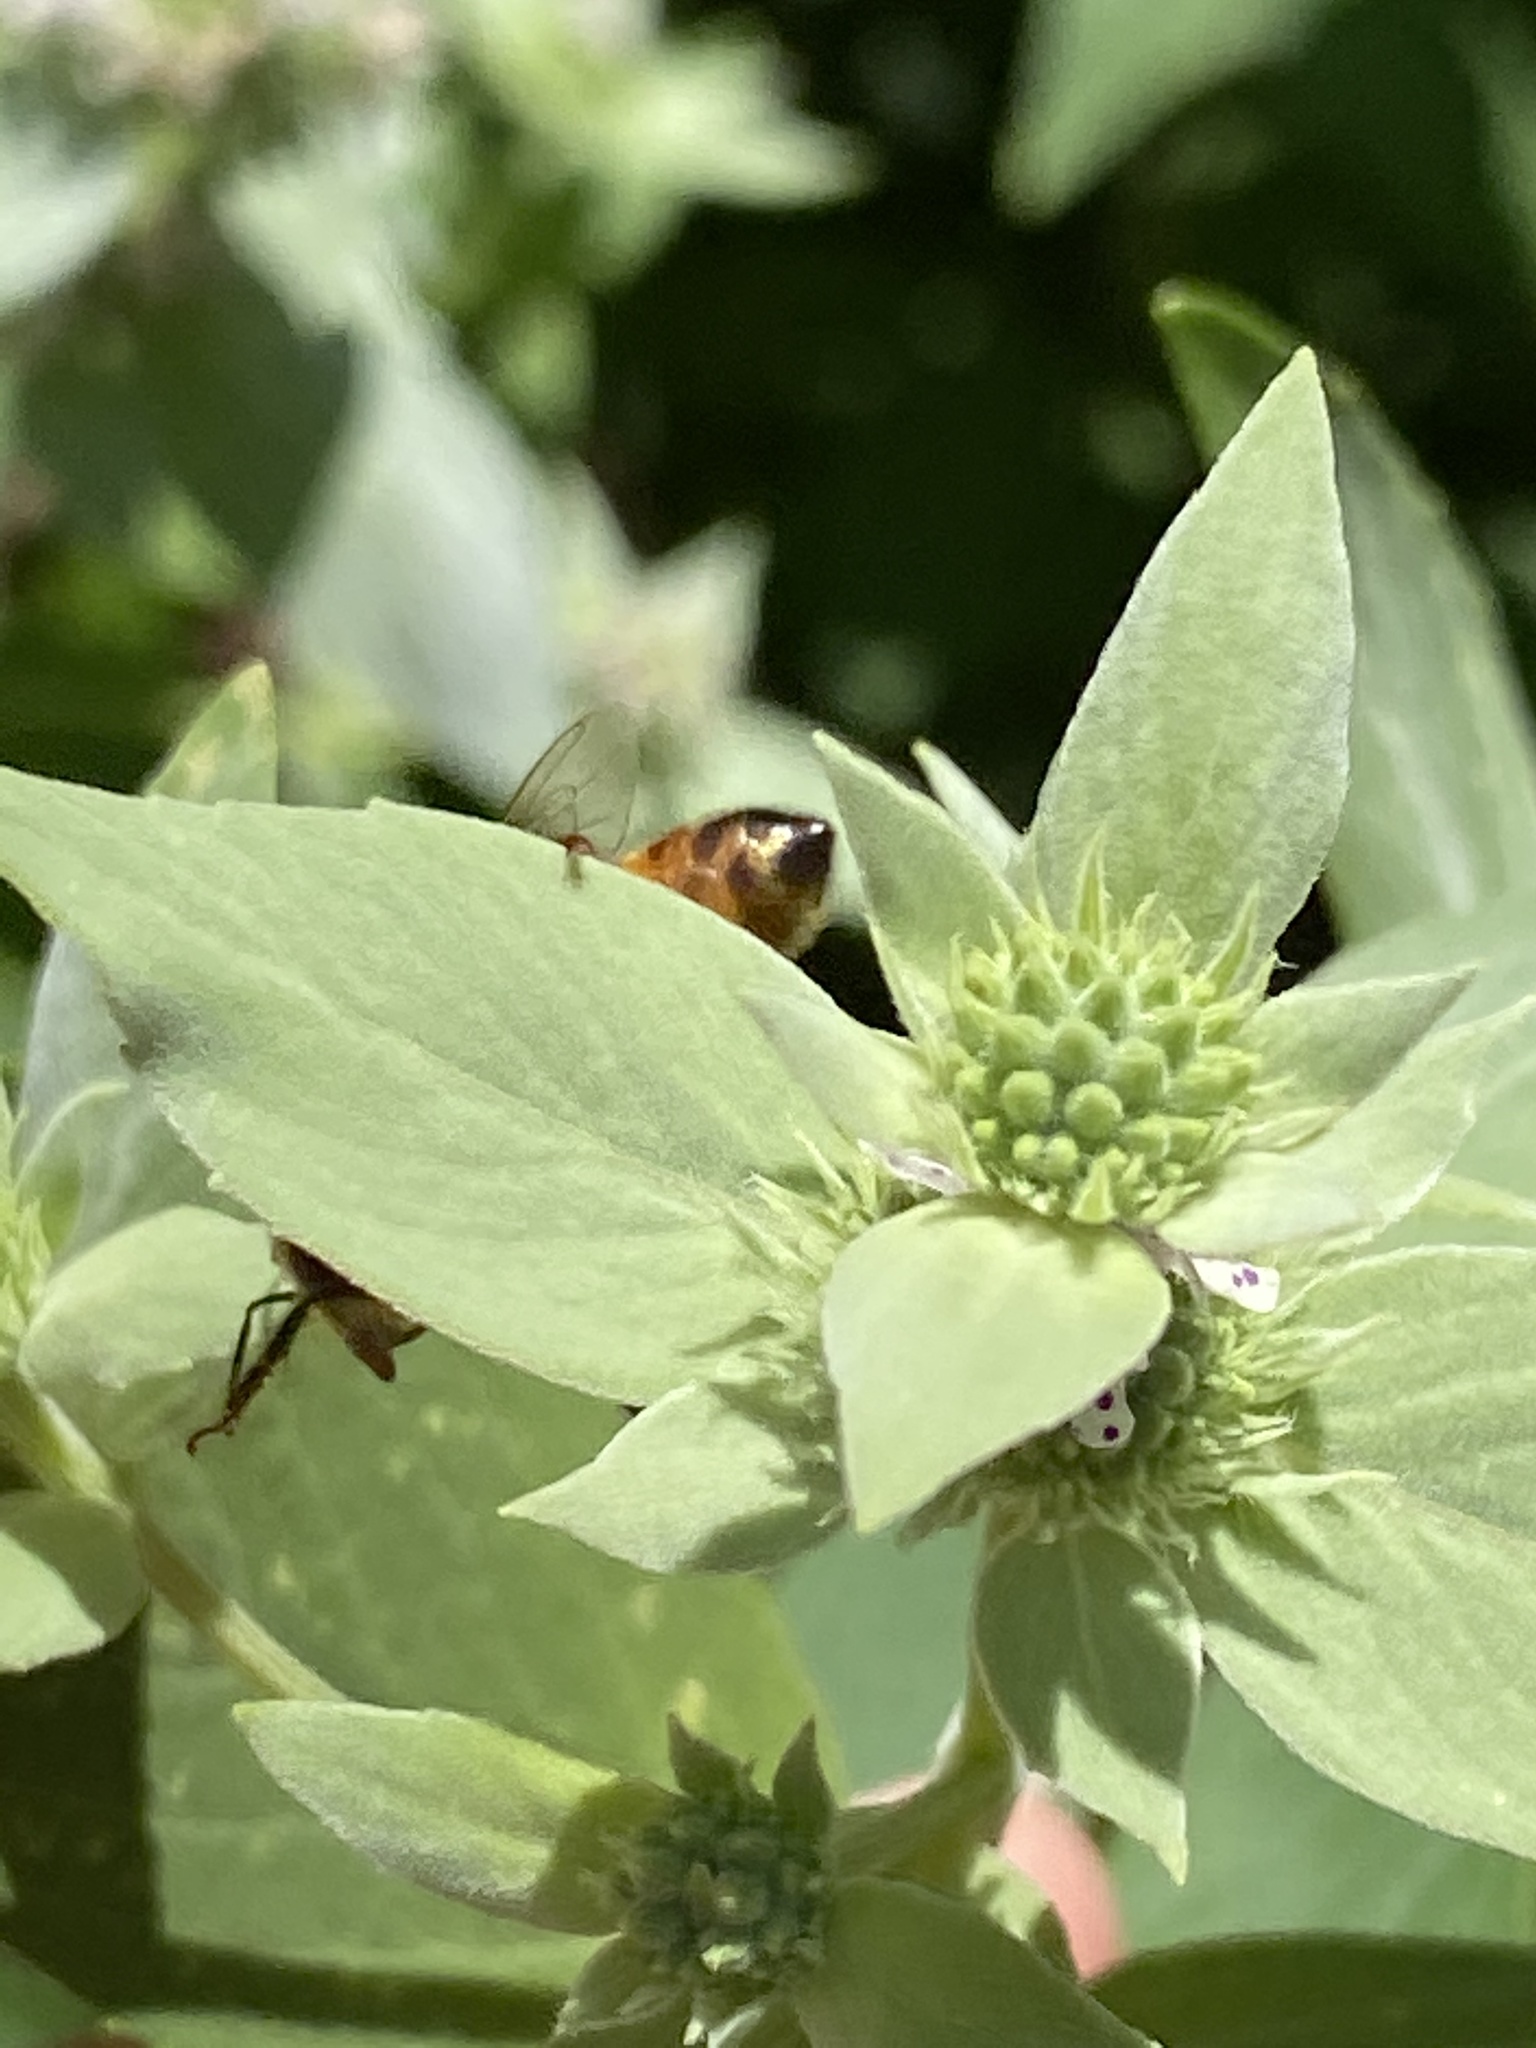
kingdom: Animalia
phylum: Arthropoda
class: Insecta
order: Hymenoptera
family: Apidae
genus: Apis
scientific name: Apis mellifera
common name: Honey bee
